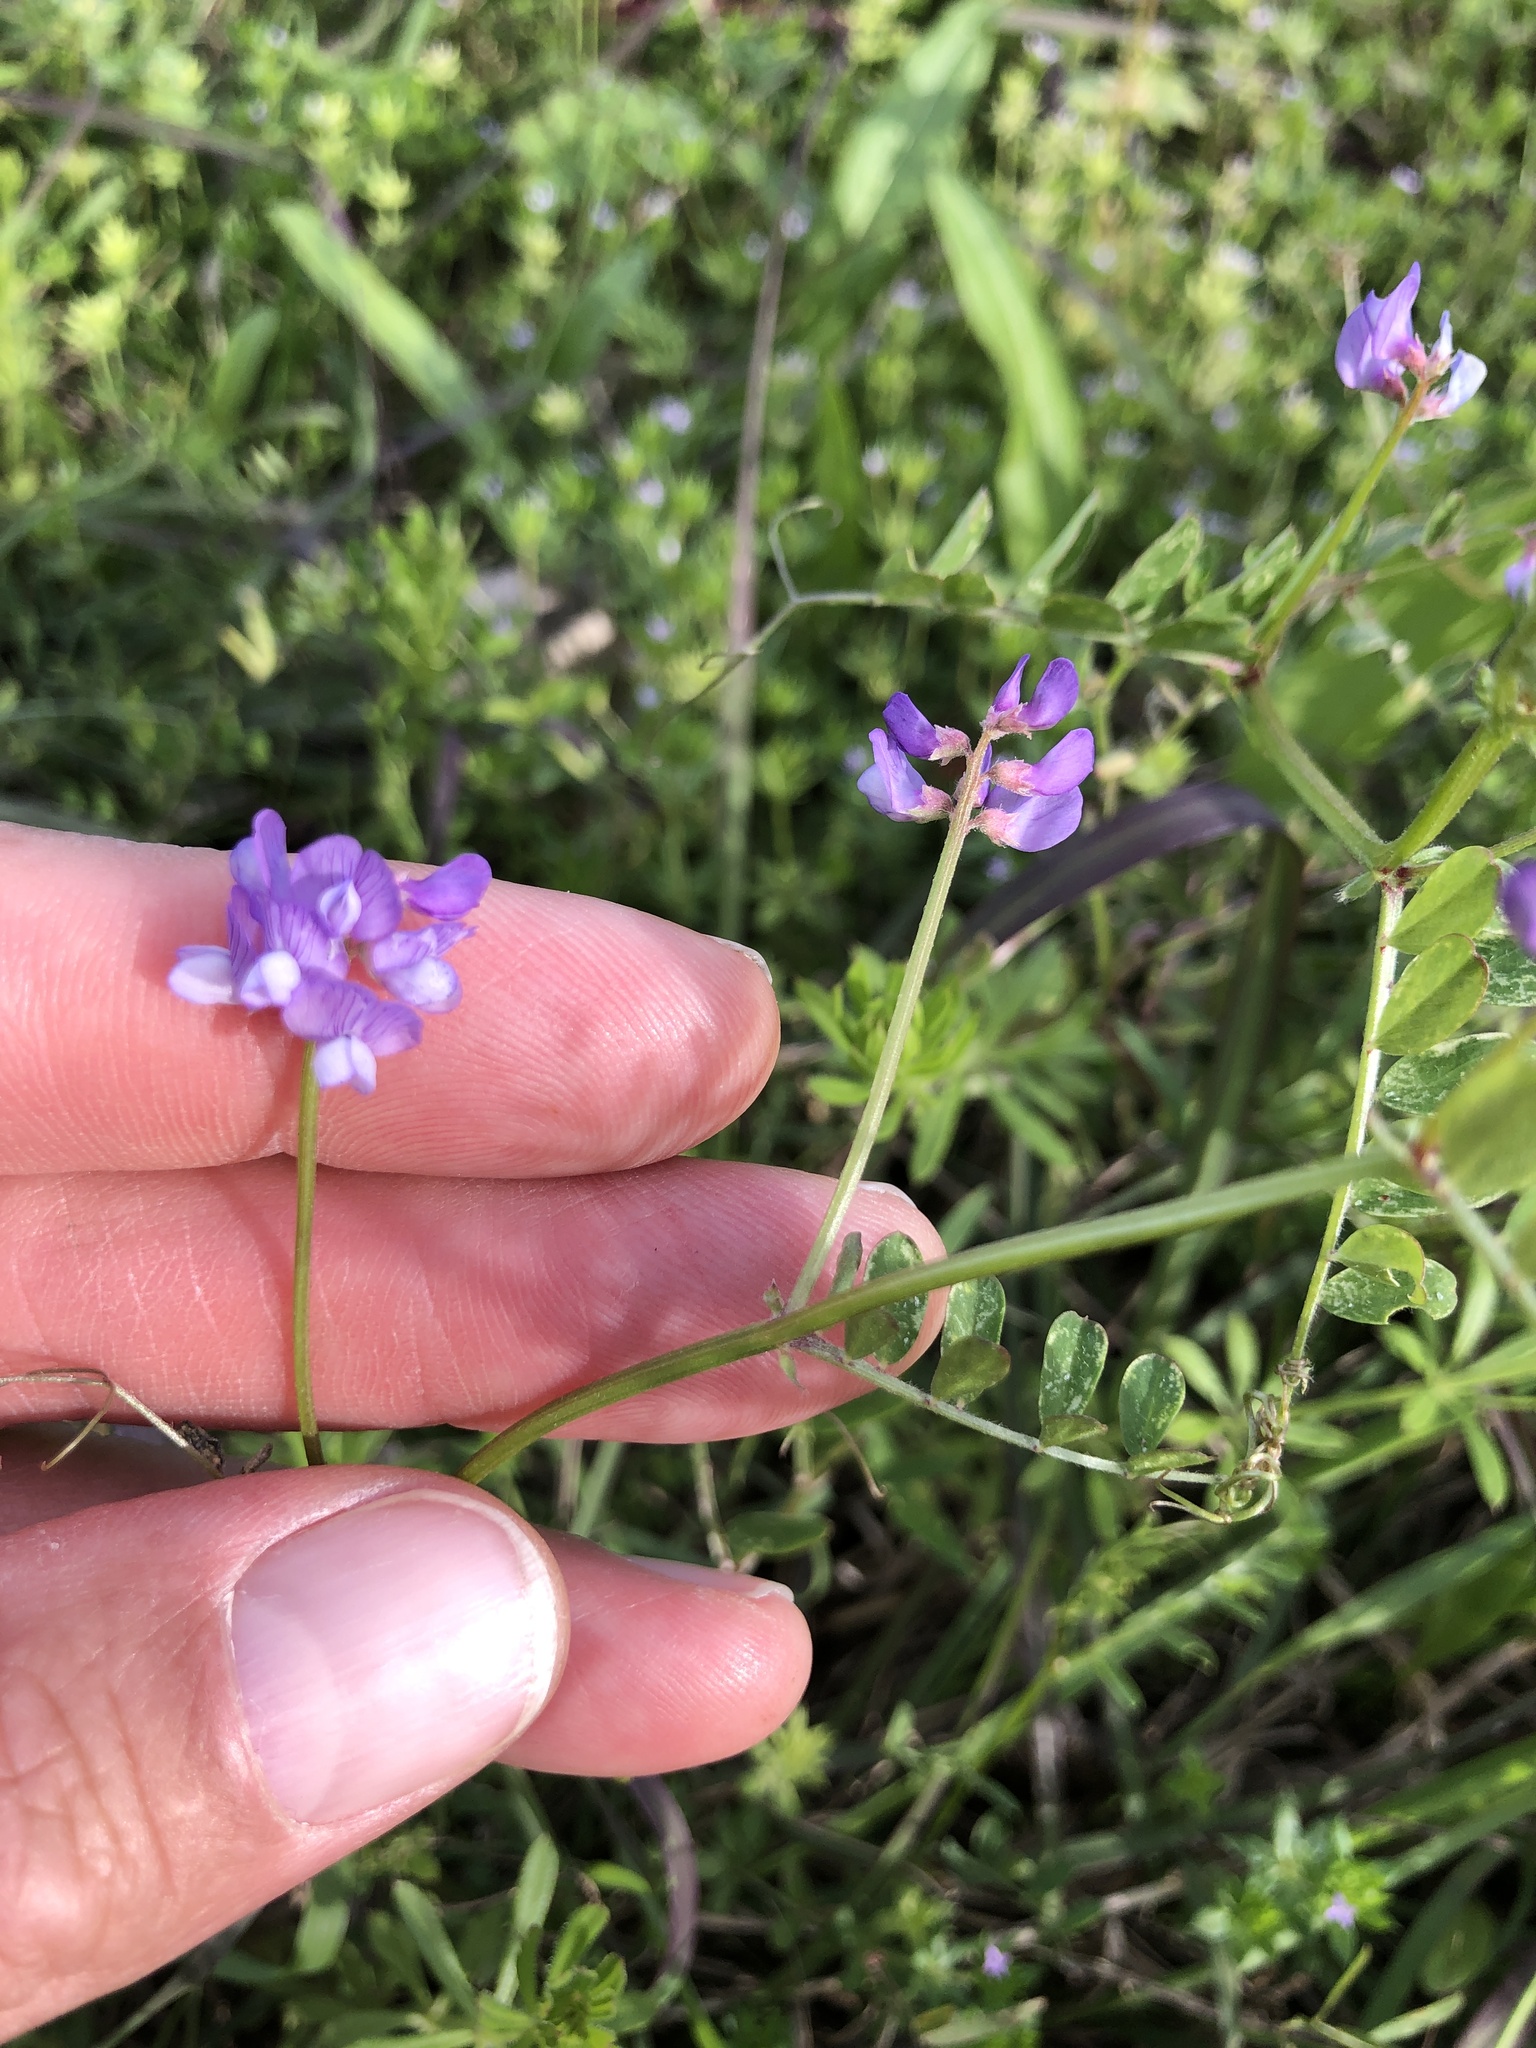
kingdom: Plantae
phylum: Tracheophyta
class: Magnoliopsida
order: Fabales
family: Fabaceae
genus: Vicia
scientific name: Vicia ludoviciana
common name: Louisiana vetch
